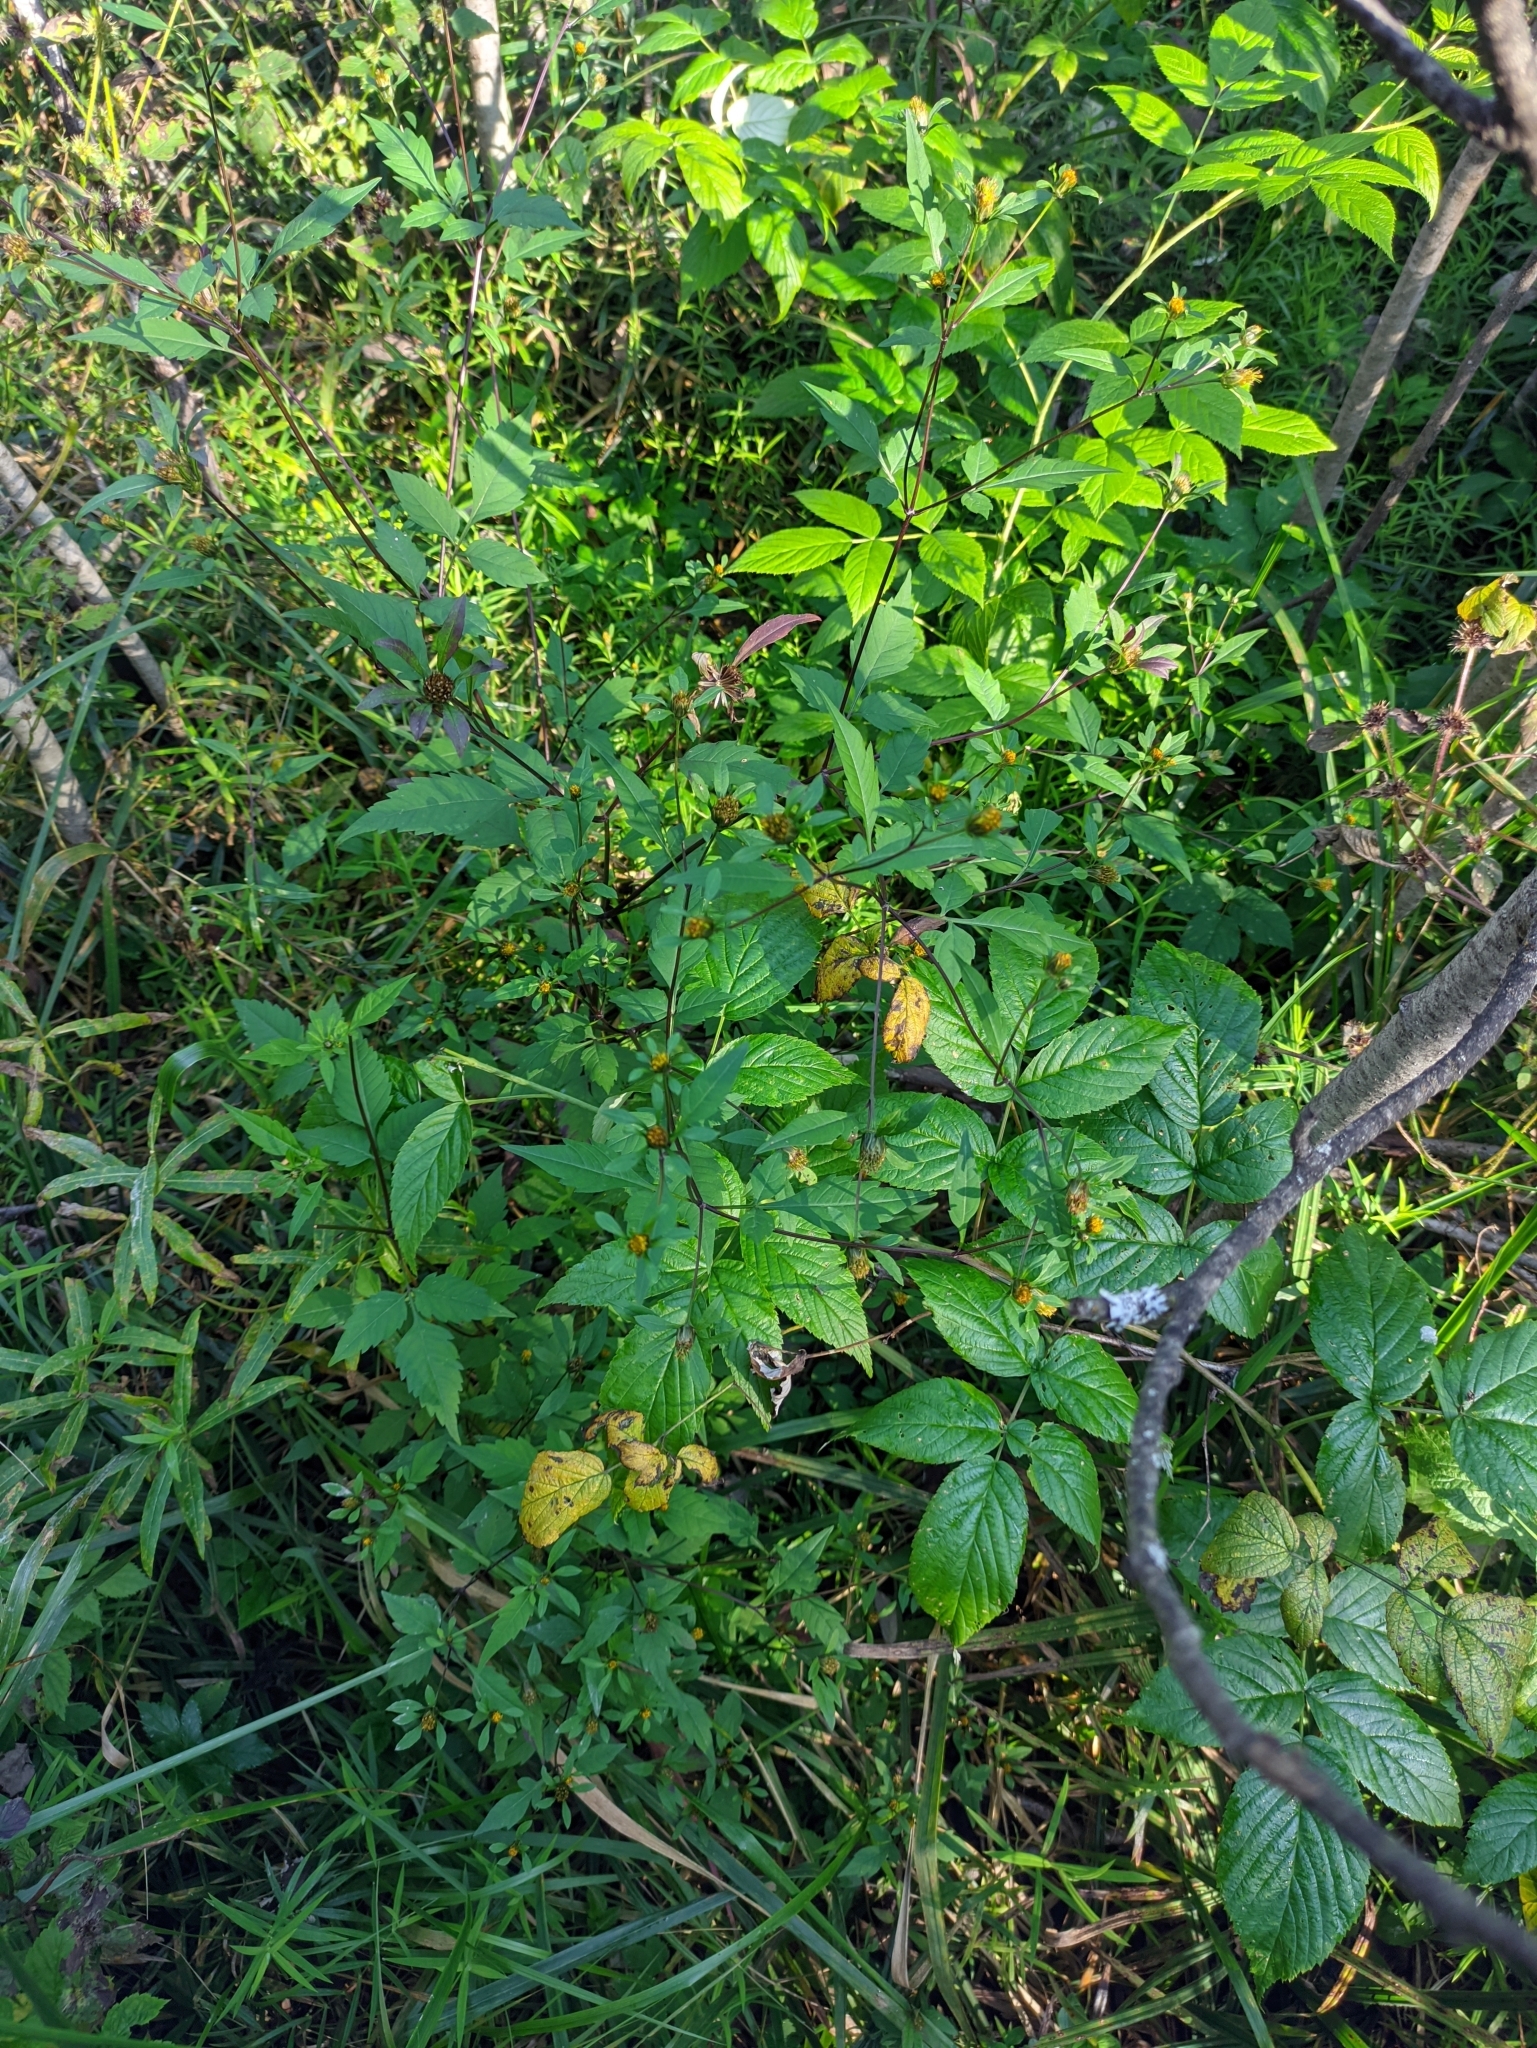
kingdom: Plantae
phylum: Tracheophyta
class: Magnoliopsida
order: Asterales
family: Asteraceae
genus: Bidens
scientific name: Bidens frondosa
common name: Beggarticks
